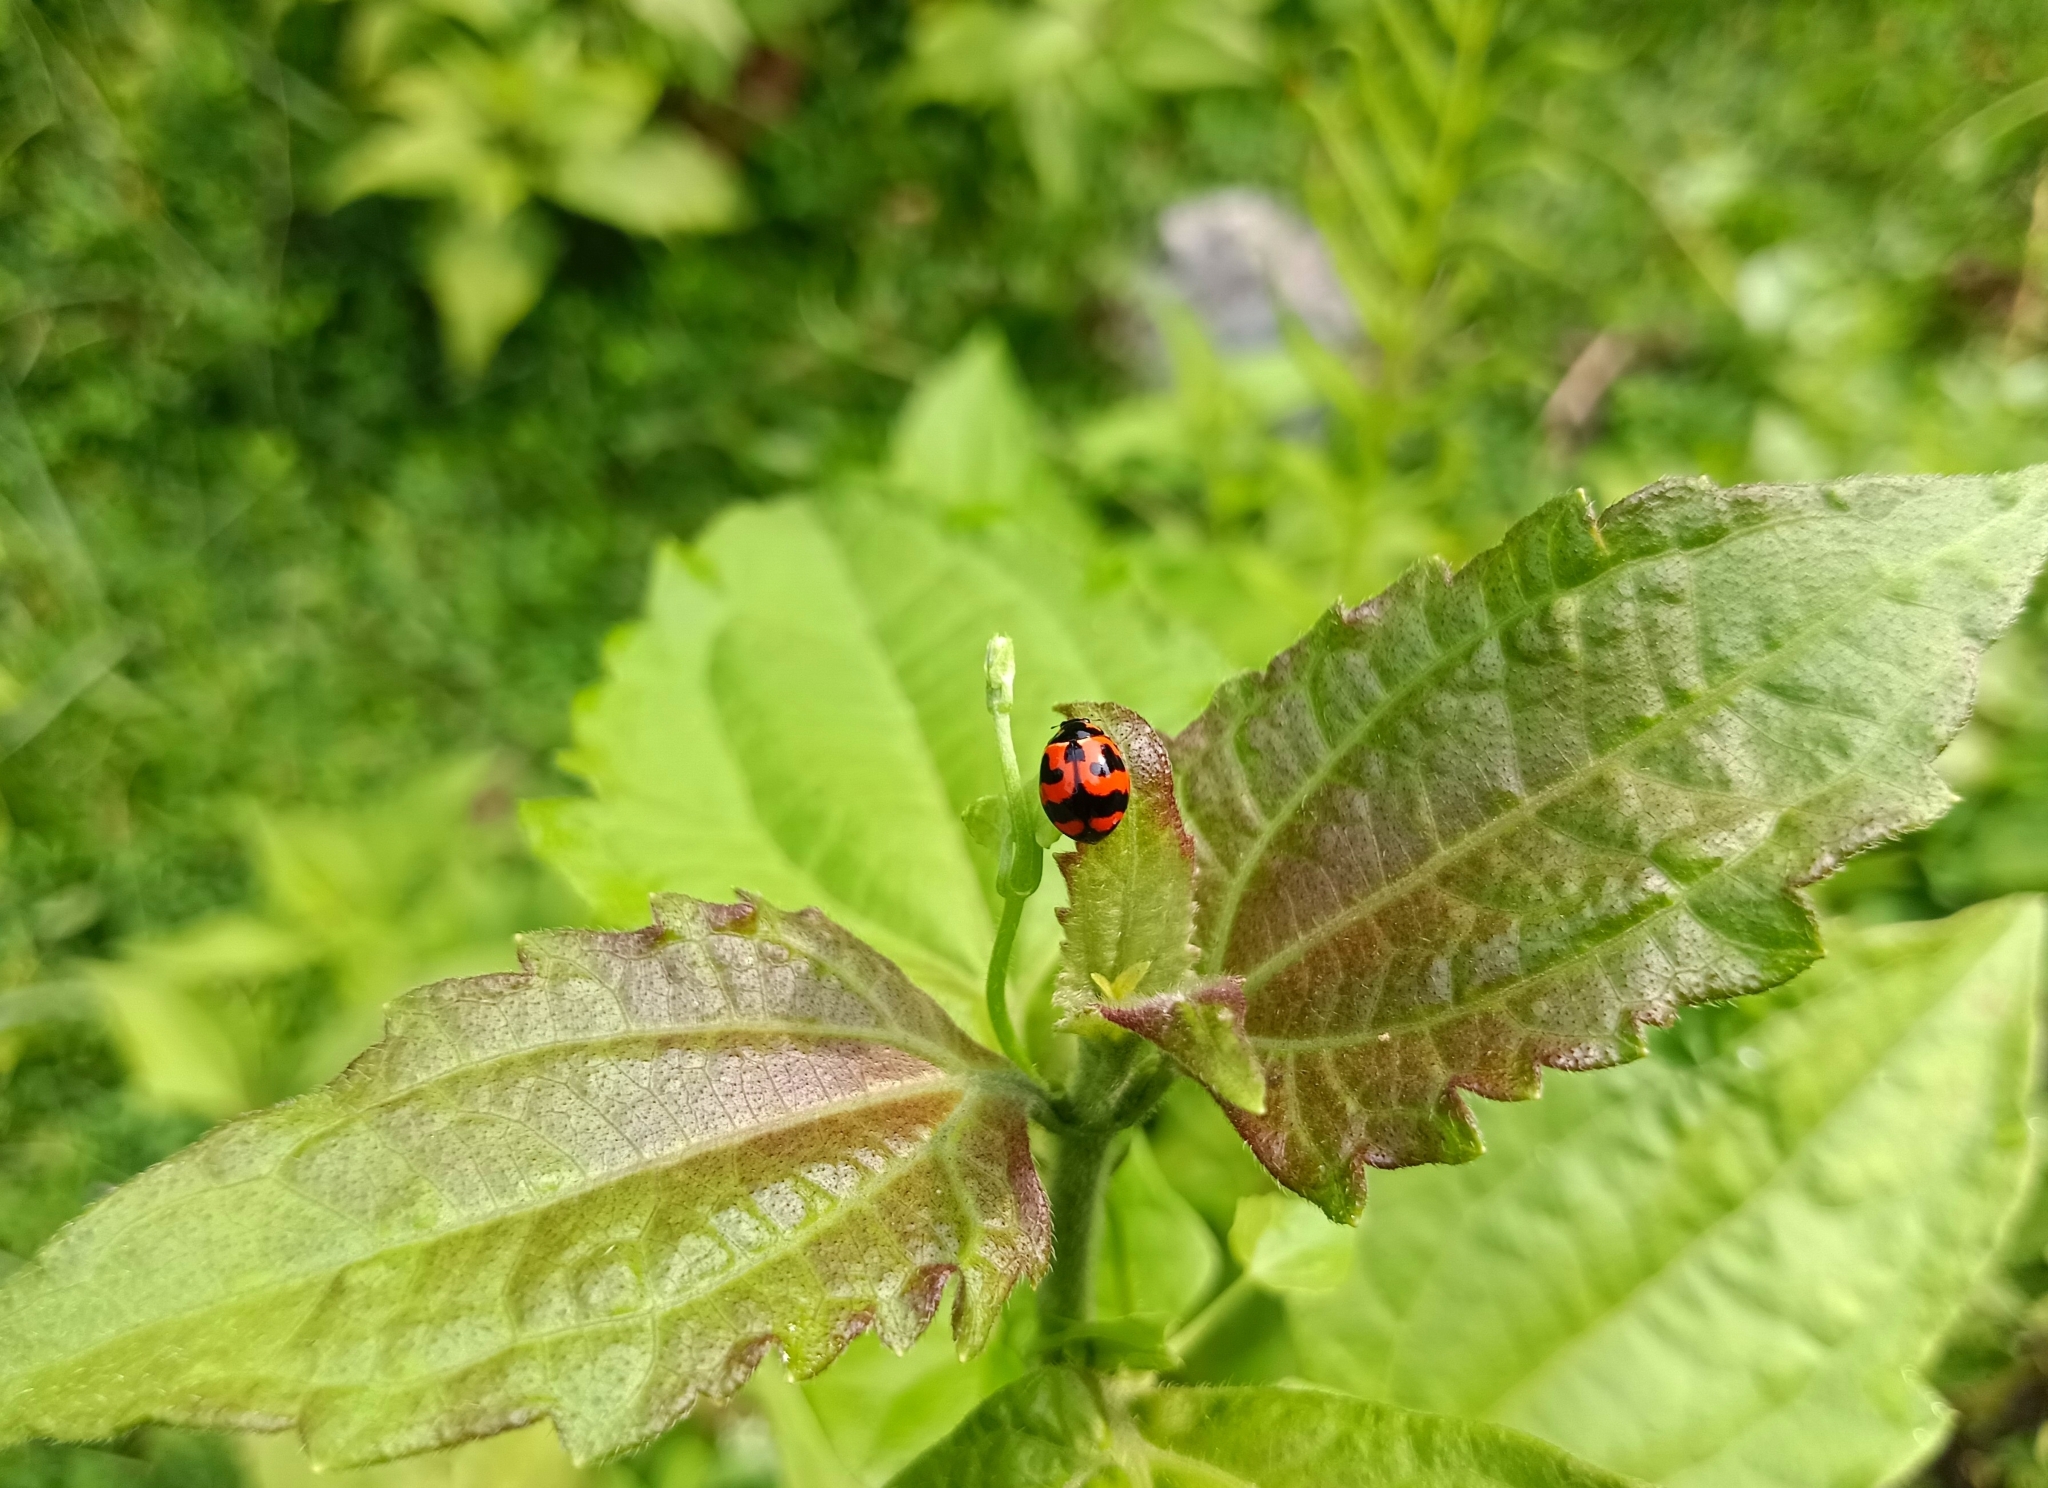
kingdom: Animalia
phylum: Arthropoda
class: Insecta
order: Coleoptera
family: Coccinellidae
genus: Coccinella
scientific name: Coccinella transversalis
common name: Transverse lady beetle
